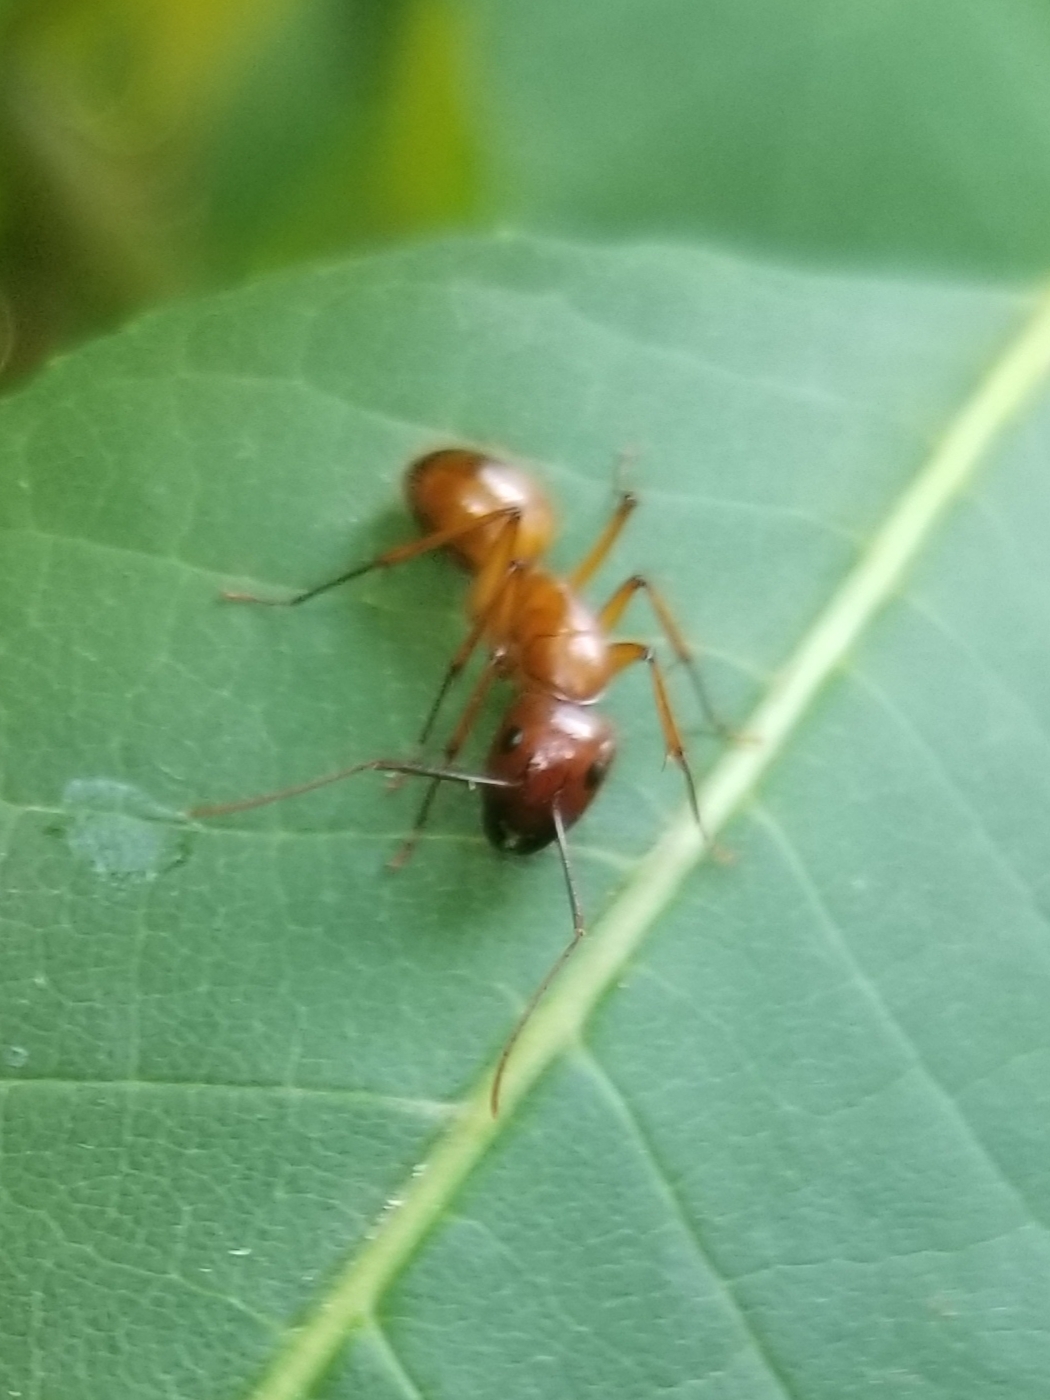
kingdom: Animalia
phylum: Arthropoda
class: Insecta
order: Hymenoptera
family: Formicidae
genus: Camponotus
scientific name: Camponotus castaneus
